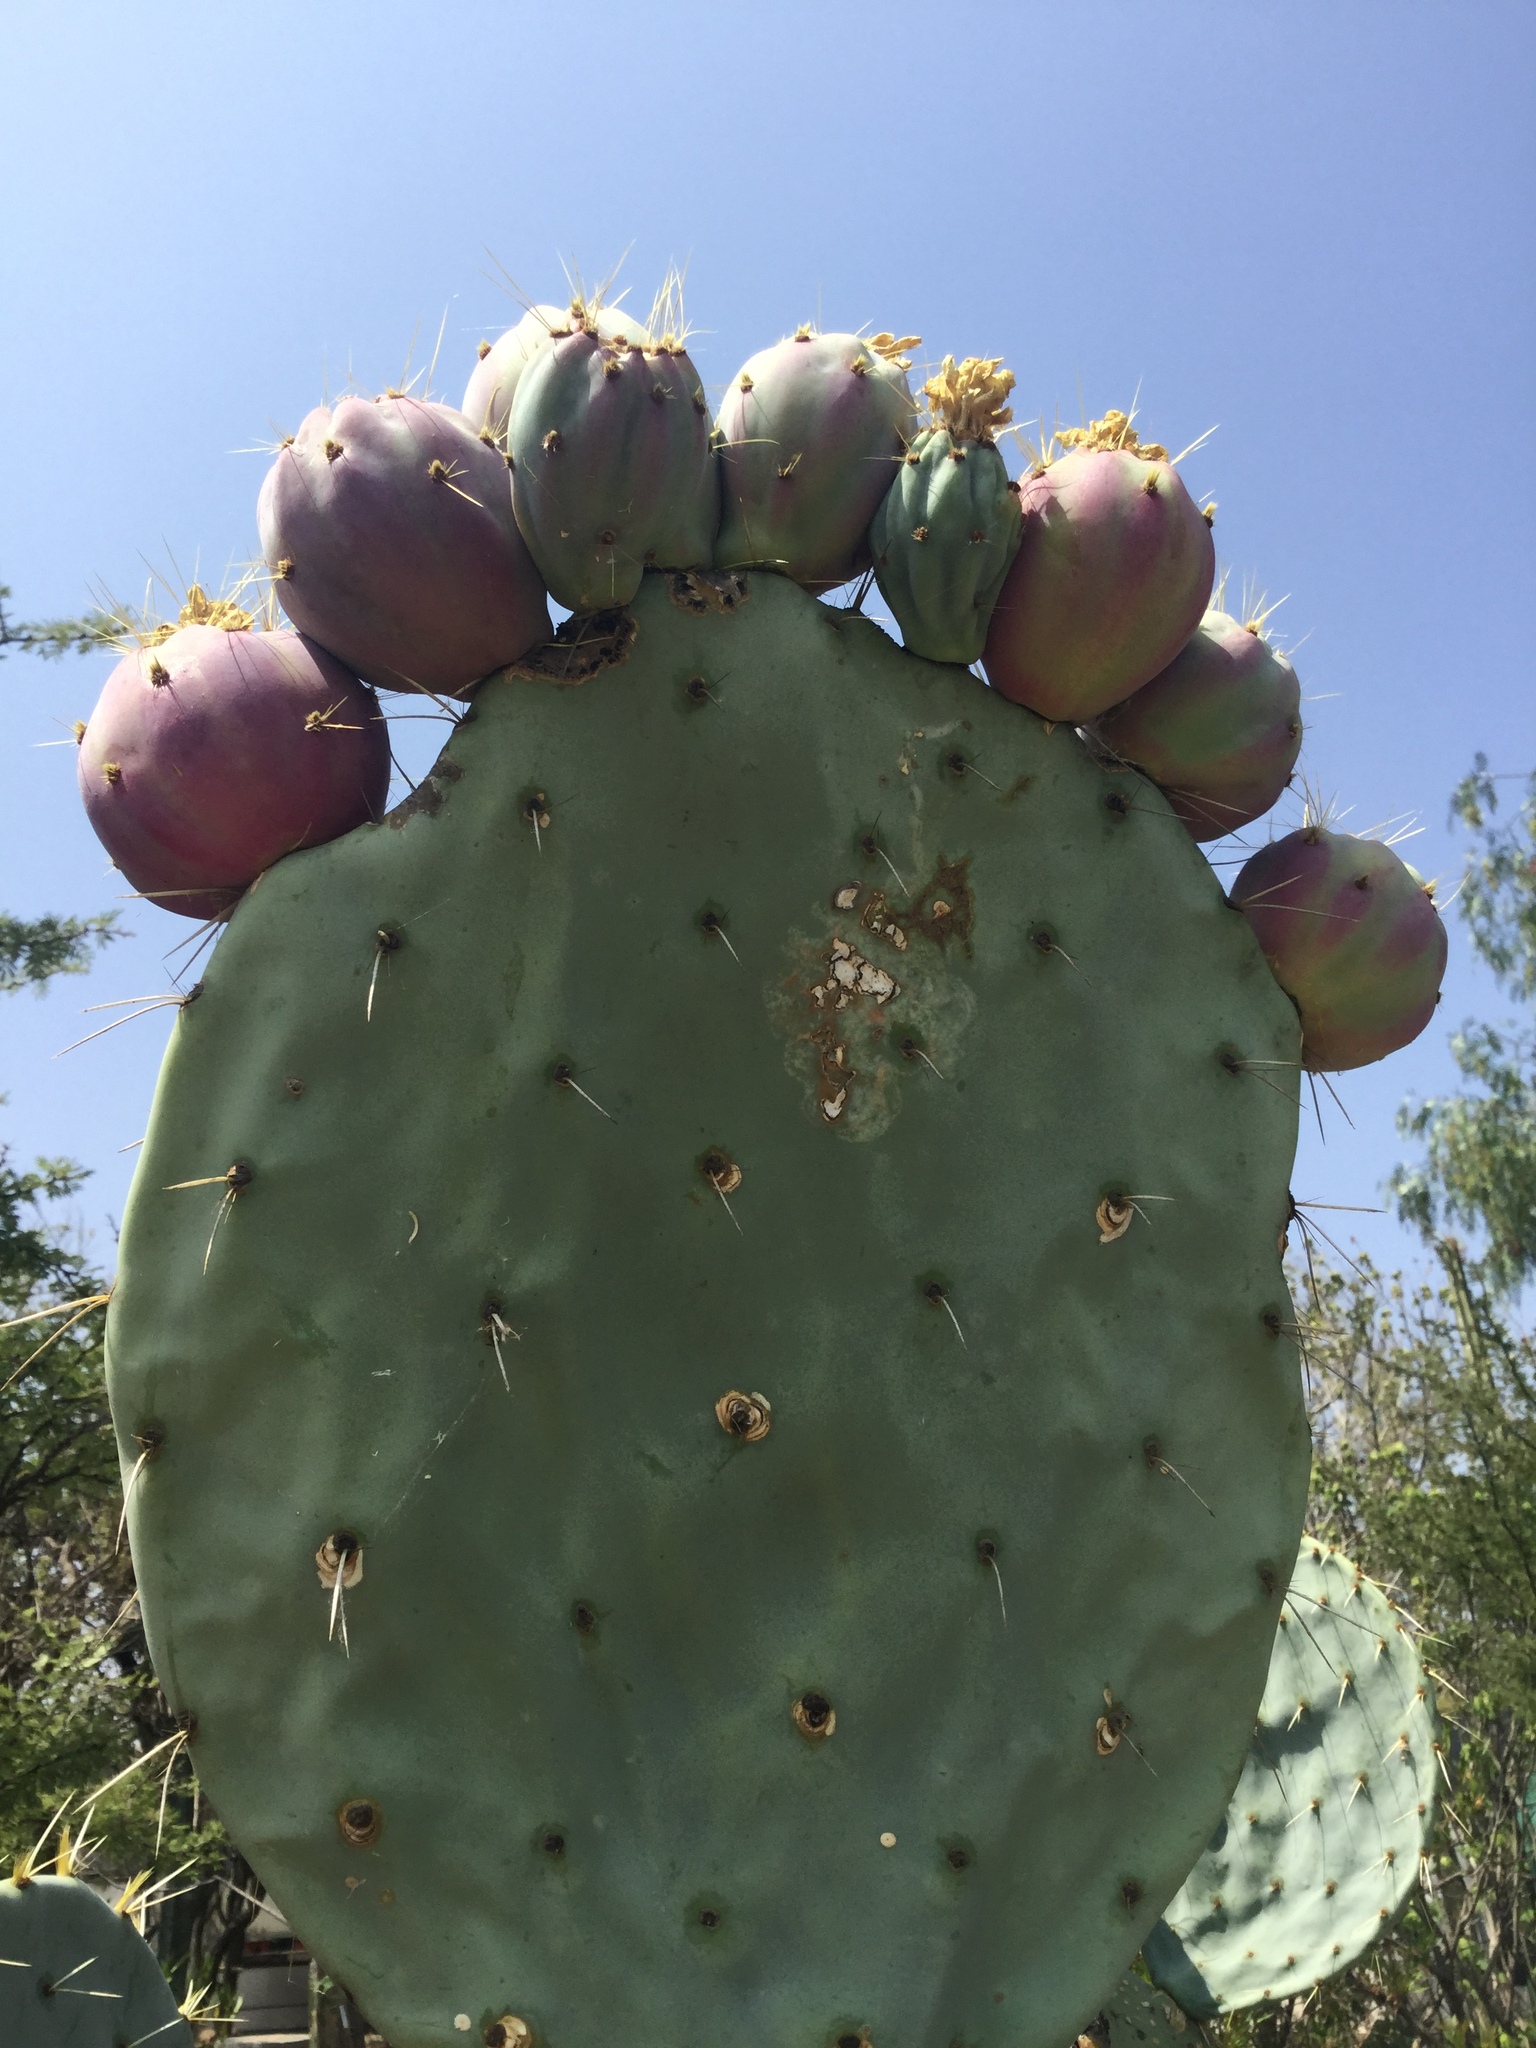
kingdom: Plantae
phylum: Tracheophyta
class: Magnoliopsida
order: Caryophyllales
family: Cactaceae
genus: Opuntia
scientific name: Opuntia robusta
